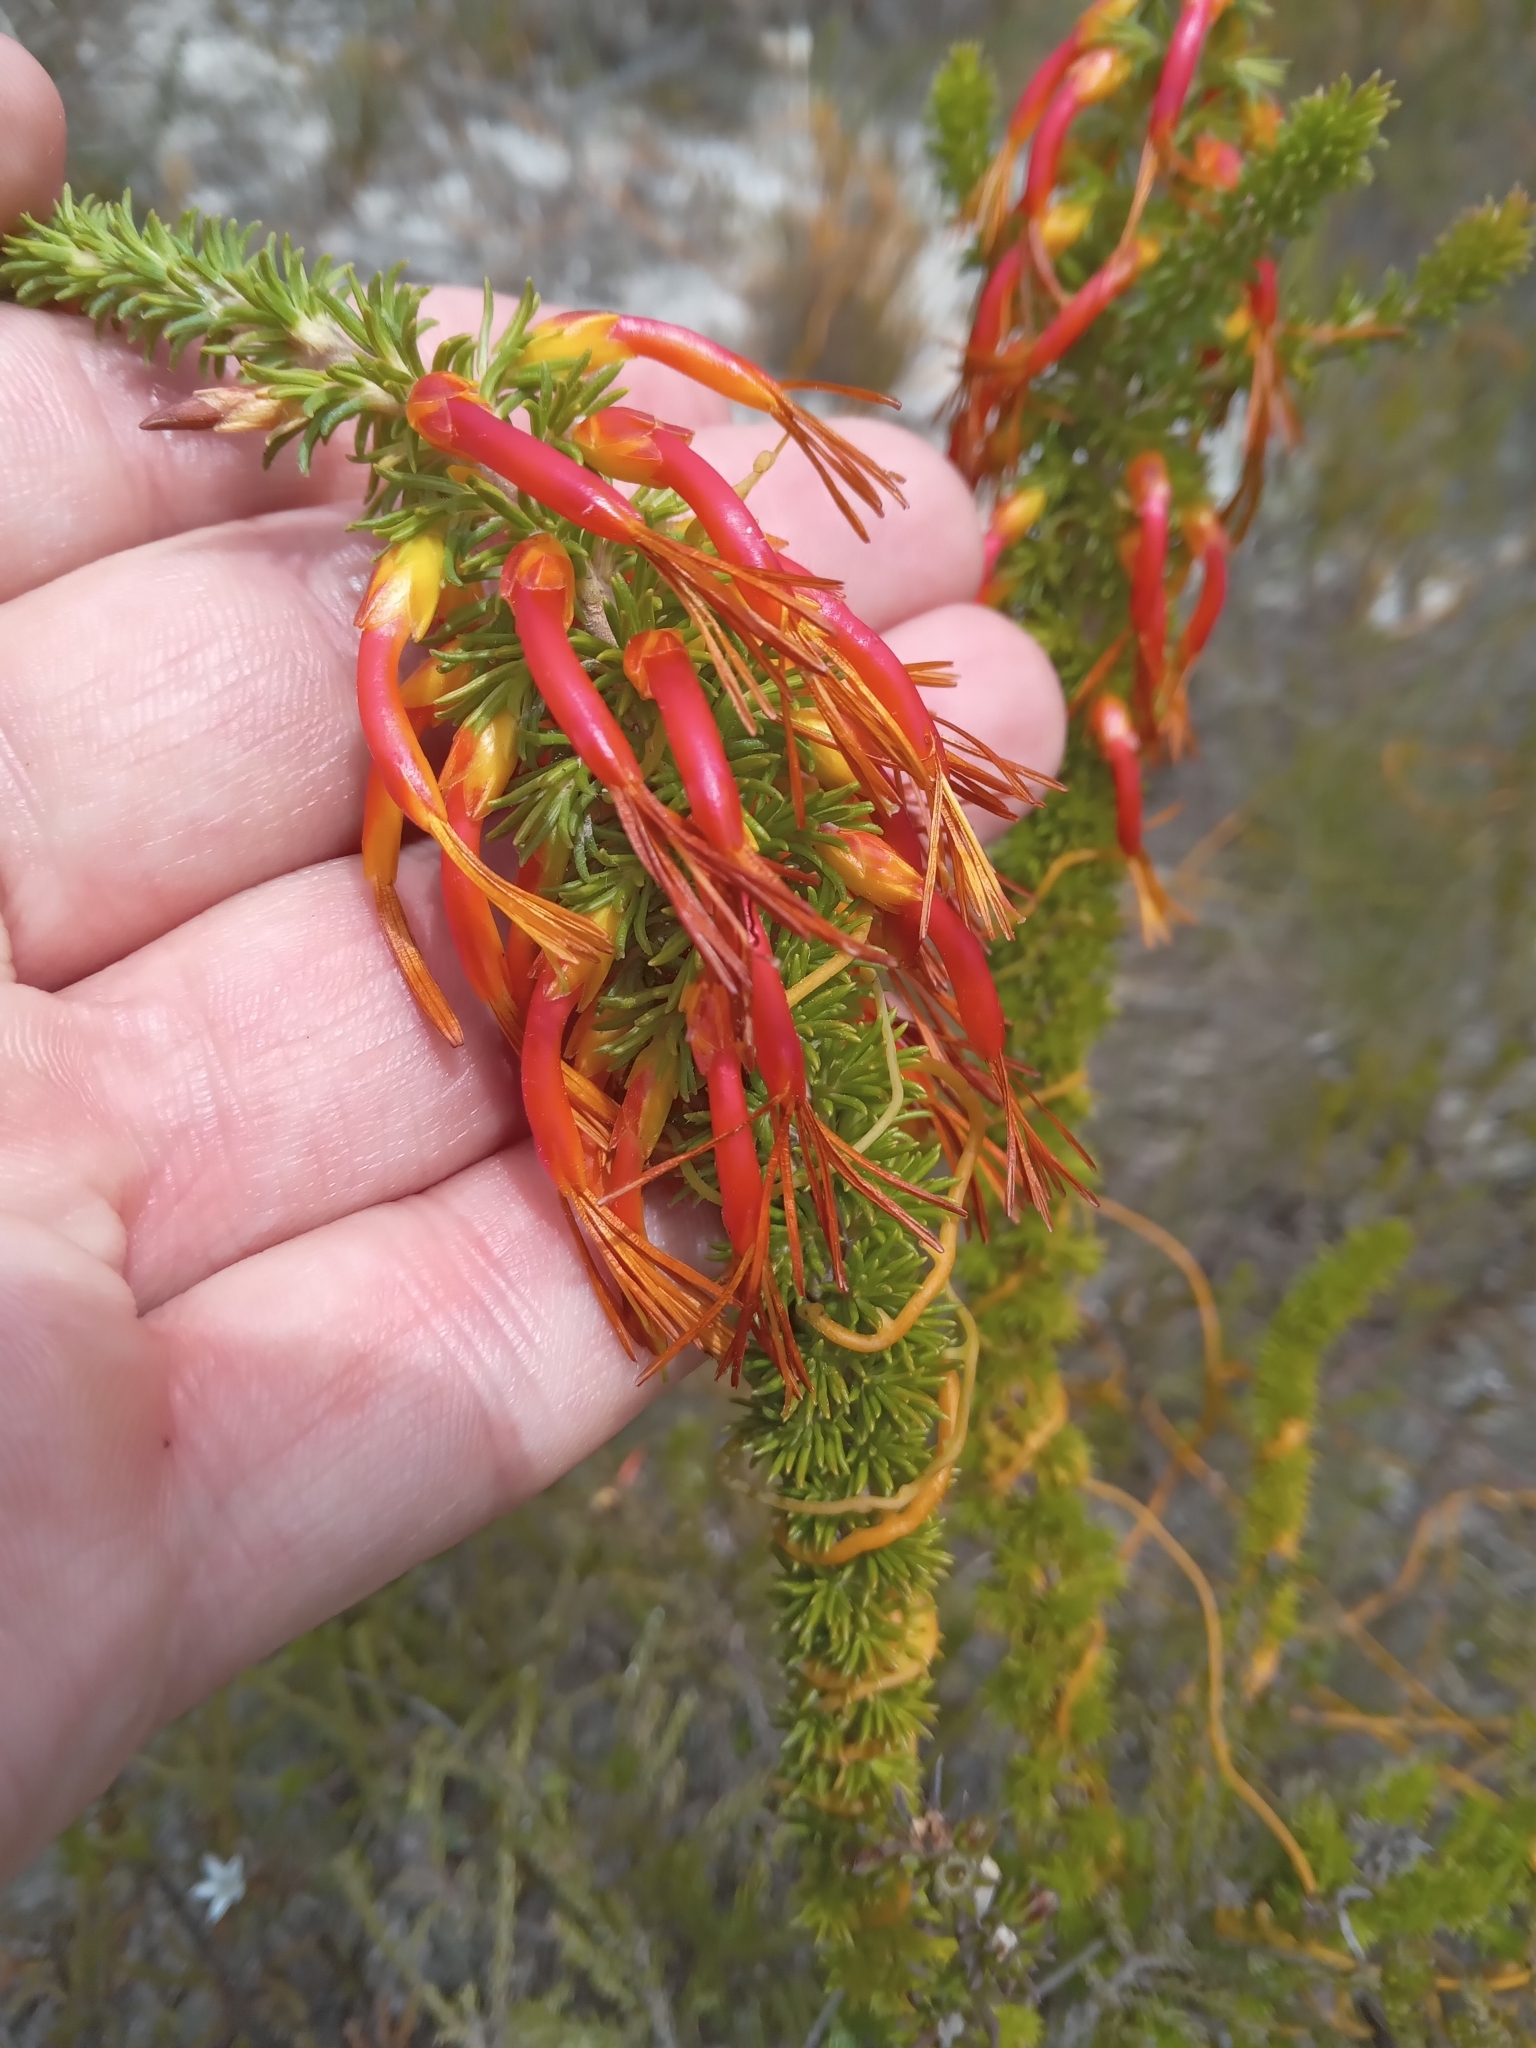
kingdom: Plantae
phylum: Tracheophyta
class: Magnoliopsida
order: Ericales
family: Ericaceae
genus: Erica
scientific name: Erica coccinea
